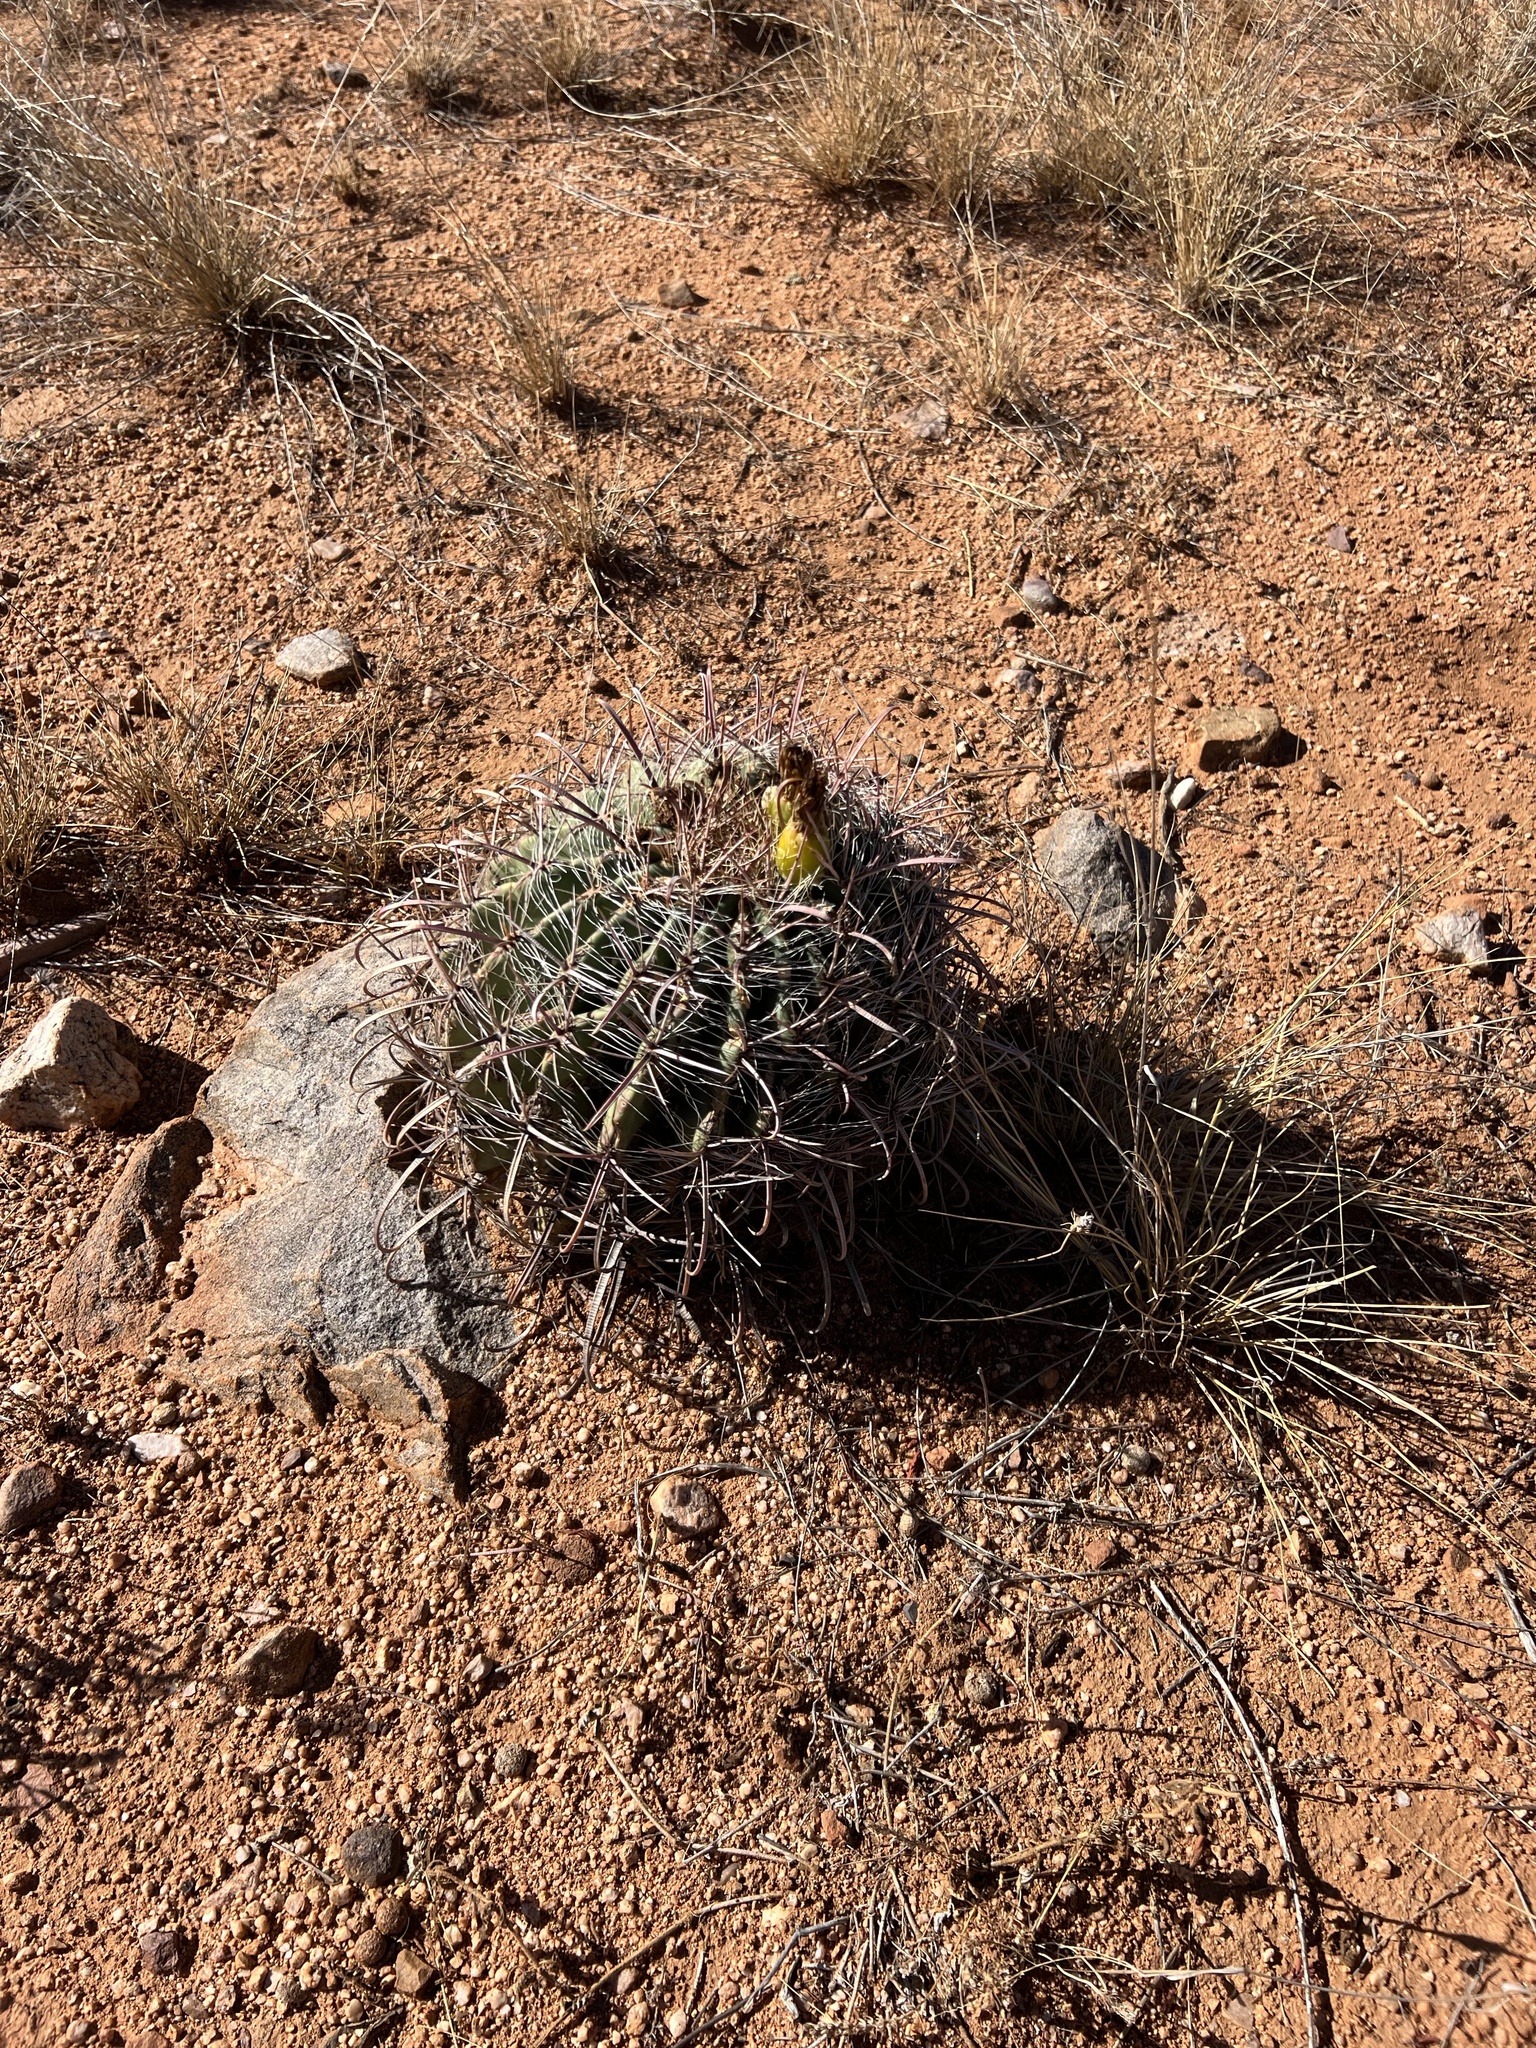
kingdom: Plantae
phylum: Tracheophyta
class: Magnoliopsida
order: Caryophyllales
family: Cactaceae
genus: Ferocactus
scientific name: Ferocactus wislizeni
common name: Candy barrel cactus
